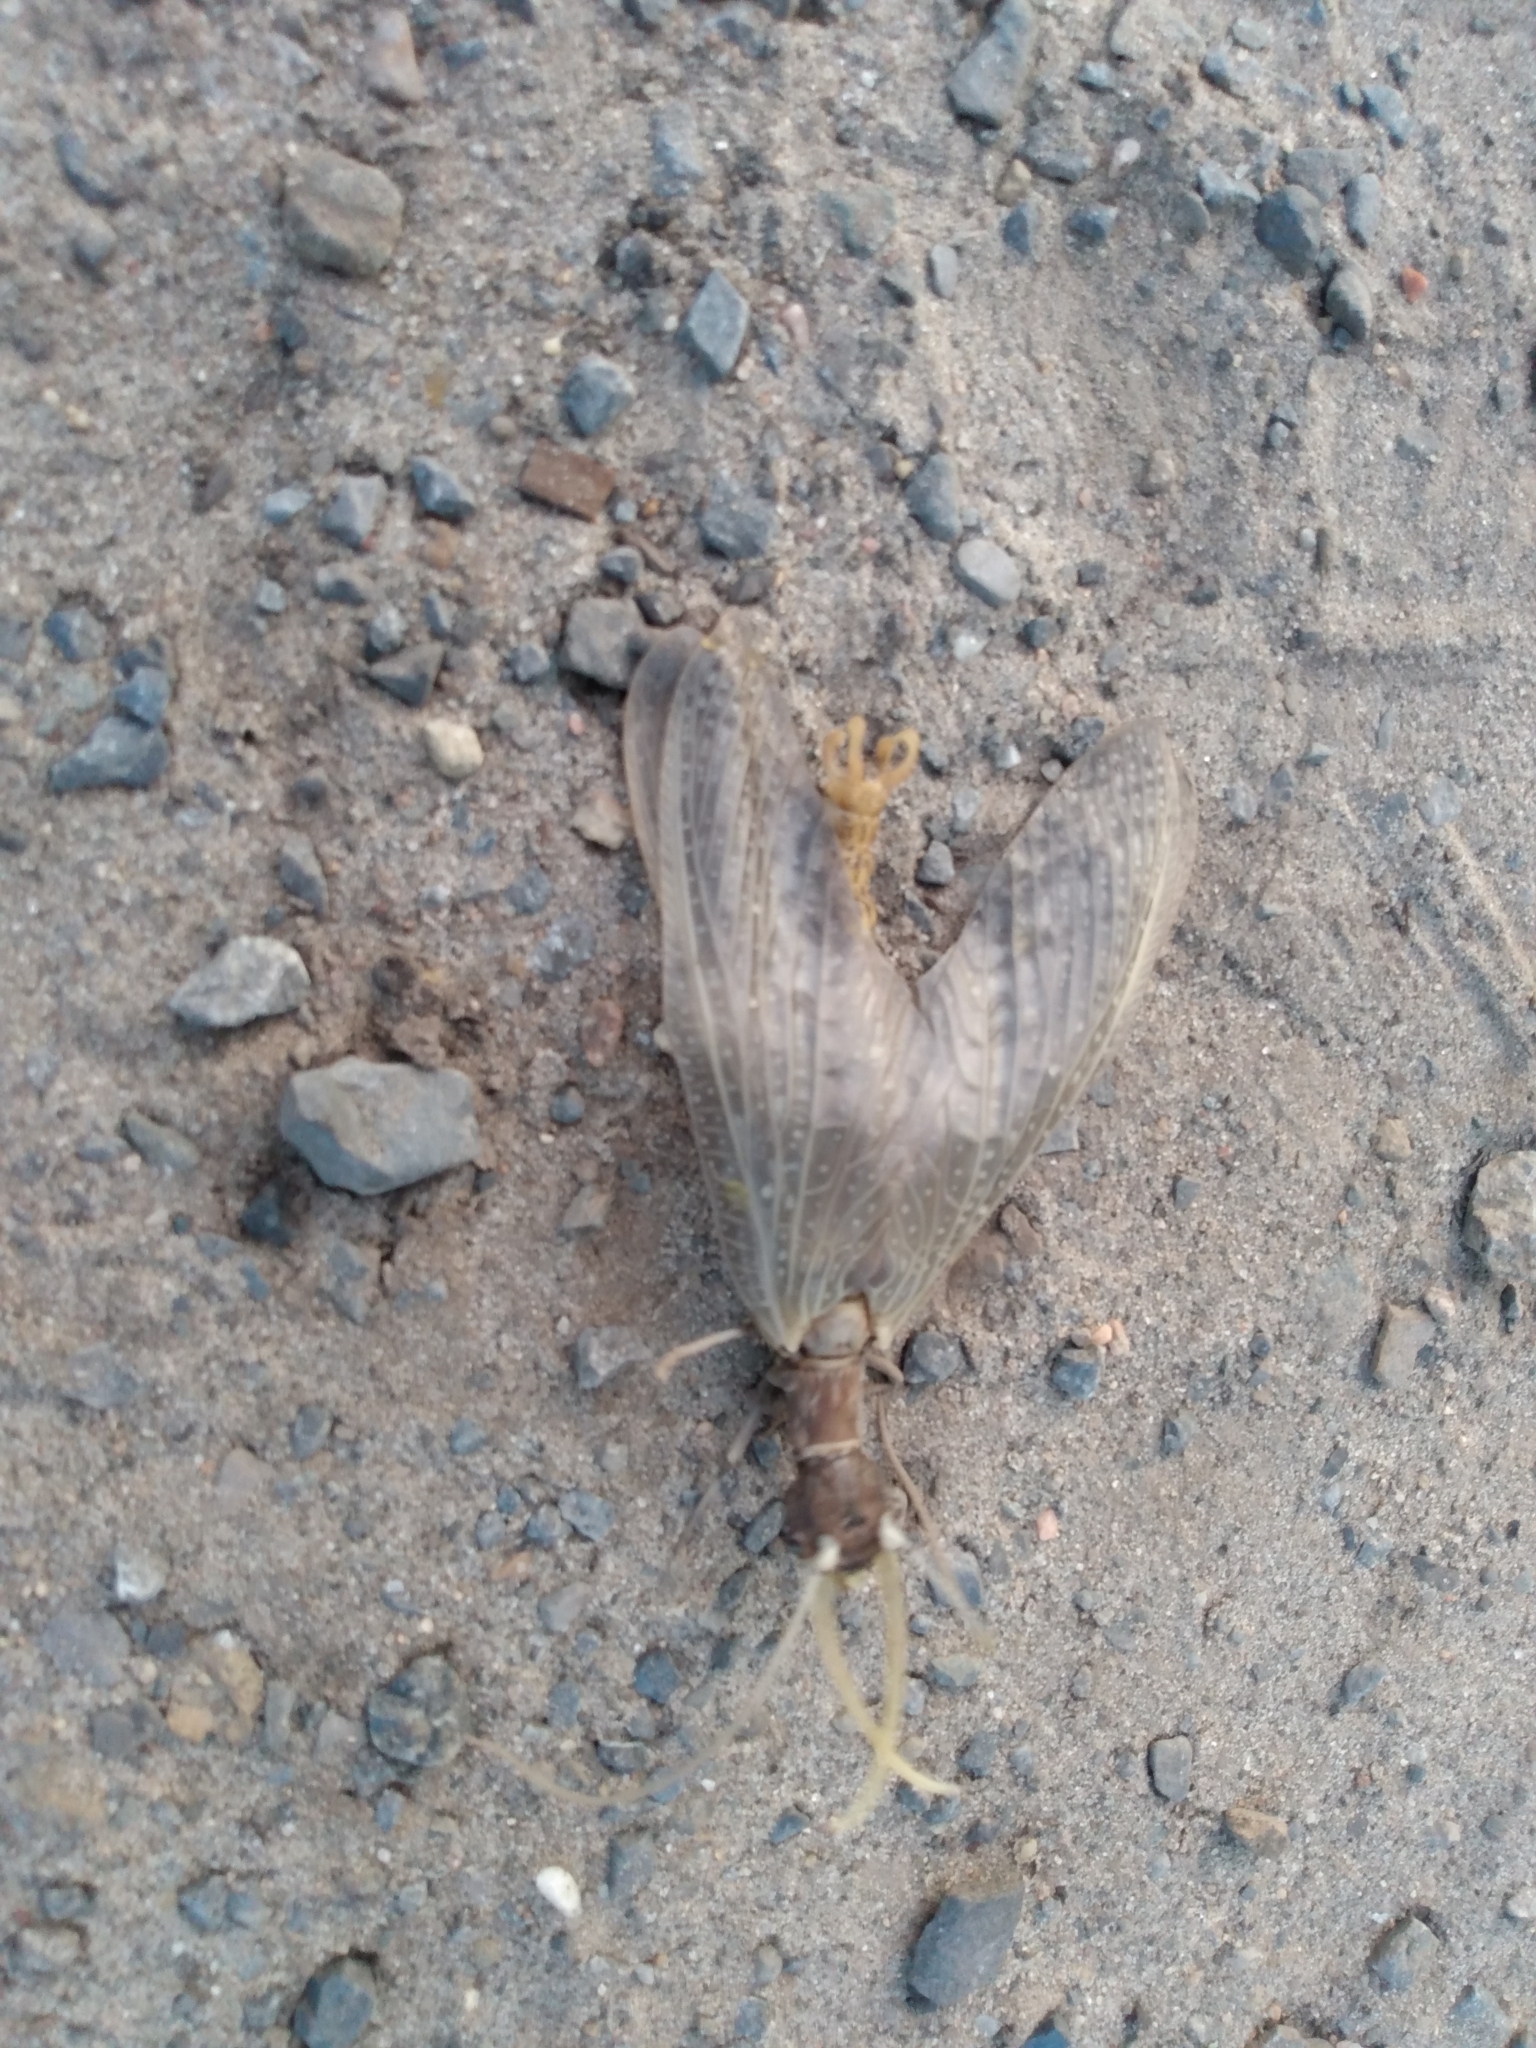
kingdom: Animalia
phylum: Arthropoda
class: Insecta
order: Megaloptera
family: Corydalidae
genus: Corydalus
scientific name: Corydalus cornutus
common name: Dobsonfly
